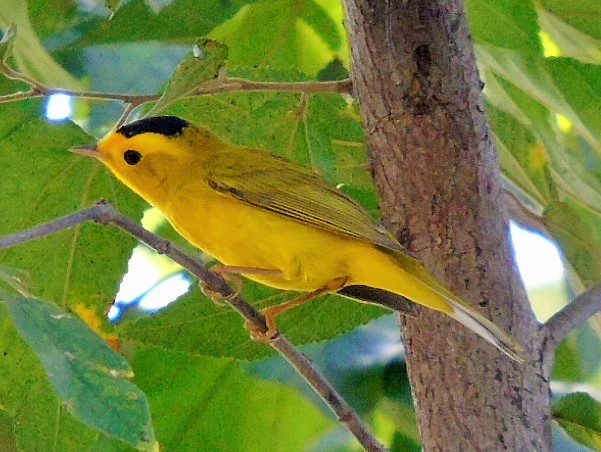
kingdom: Animalia
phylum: Chordata
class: Aves
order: Passeriformes
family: Parulidae
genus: Cardellina
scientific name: Cardellina pusilla
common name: Wilson's warbler
